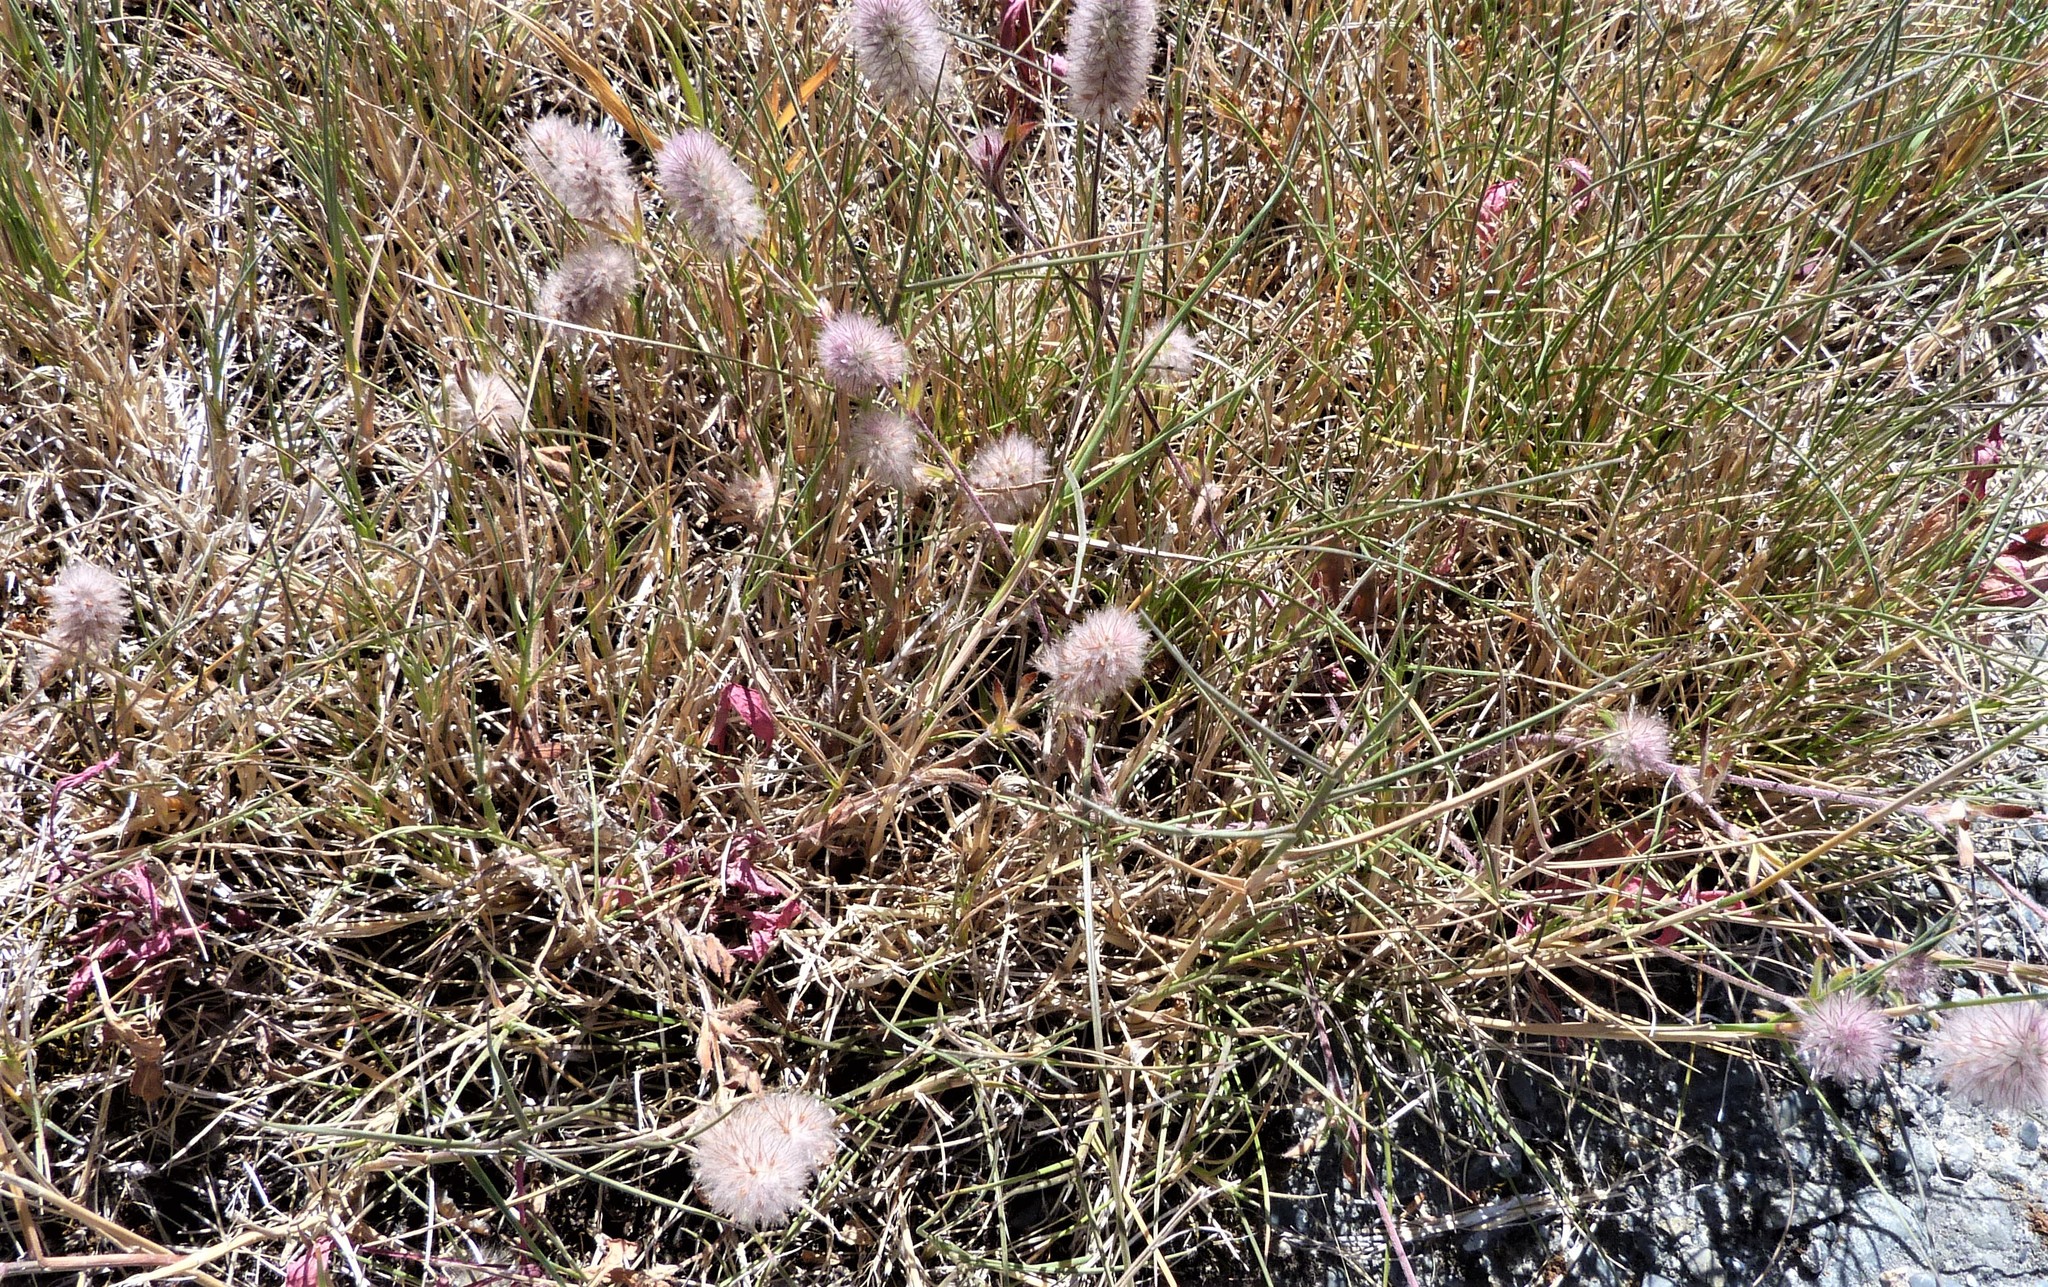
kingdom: Plantae
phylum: Tracheophyta
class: Magnoliopsida
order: Fabales
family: Fabaceae
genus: Trifolium
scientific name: Trifolium arvense
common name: Hare's-foot clover
